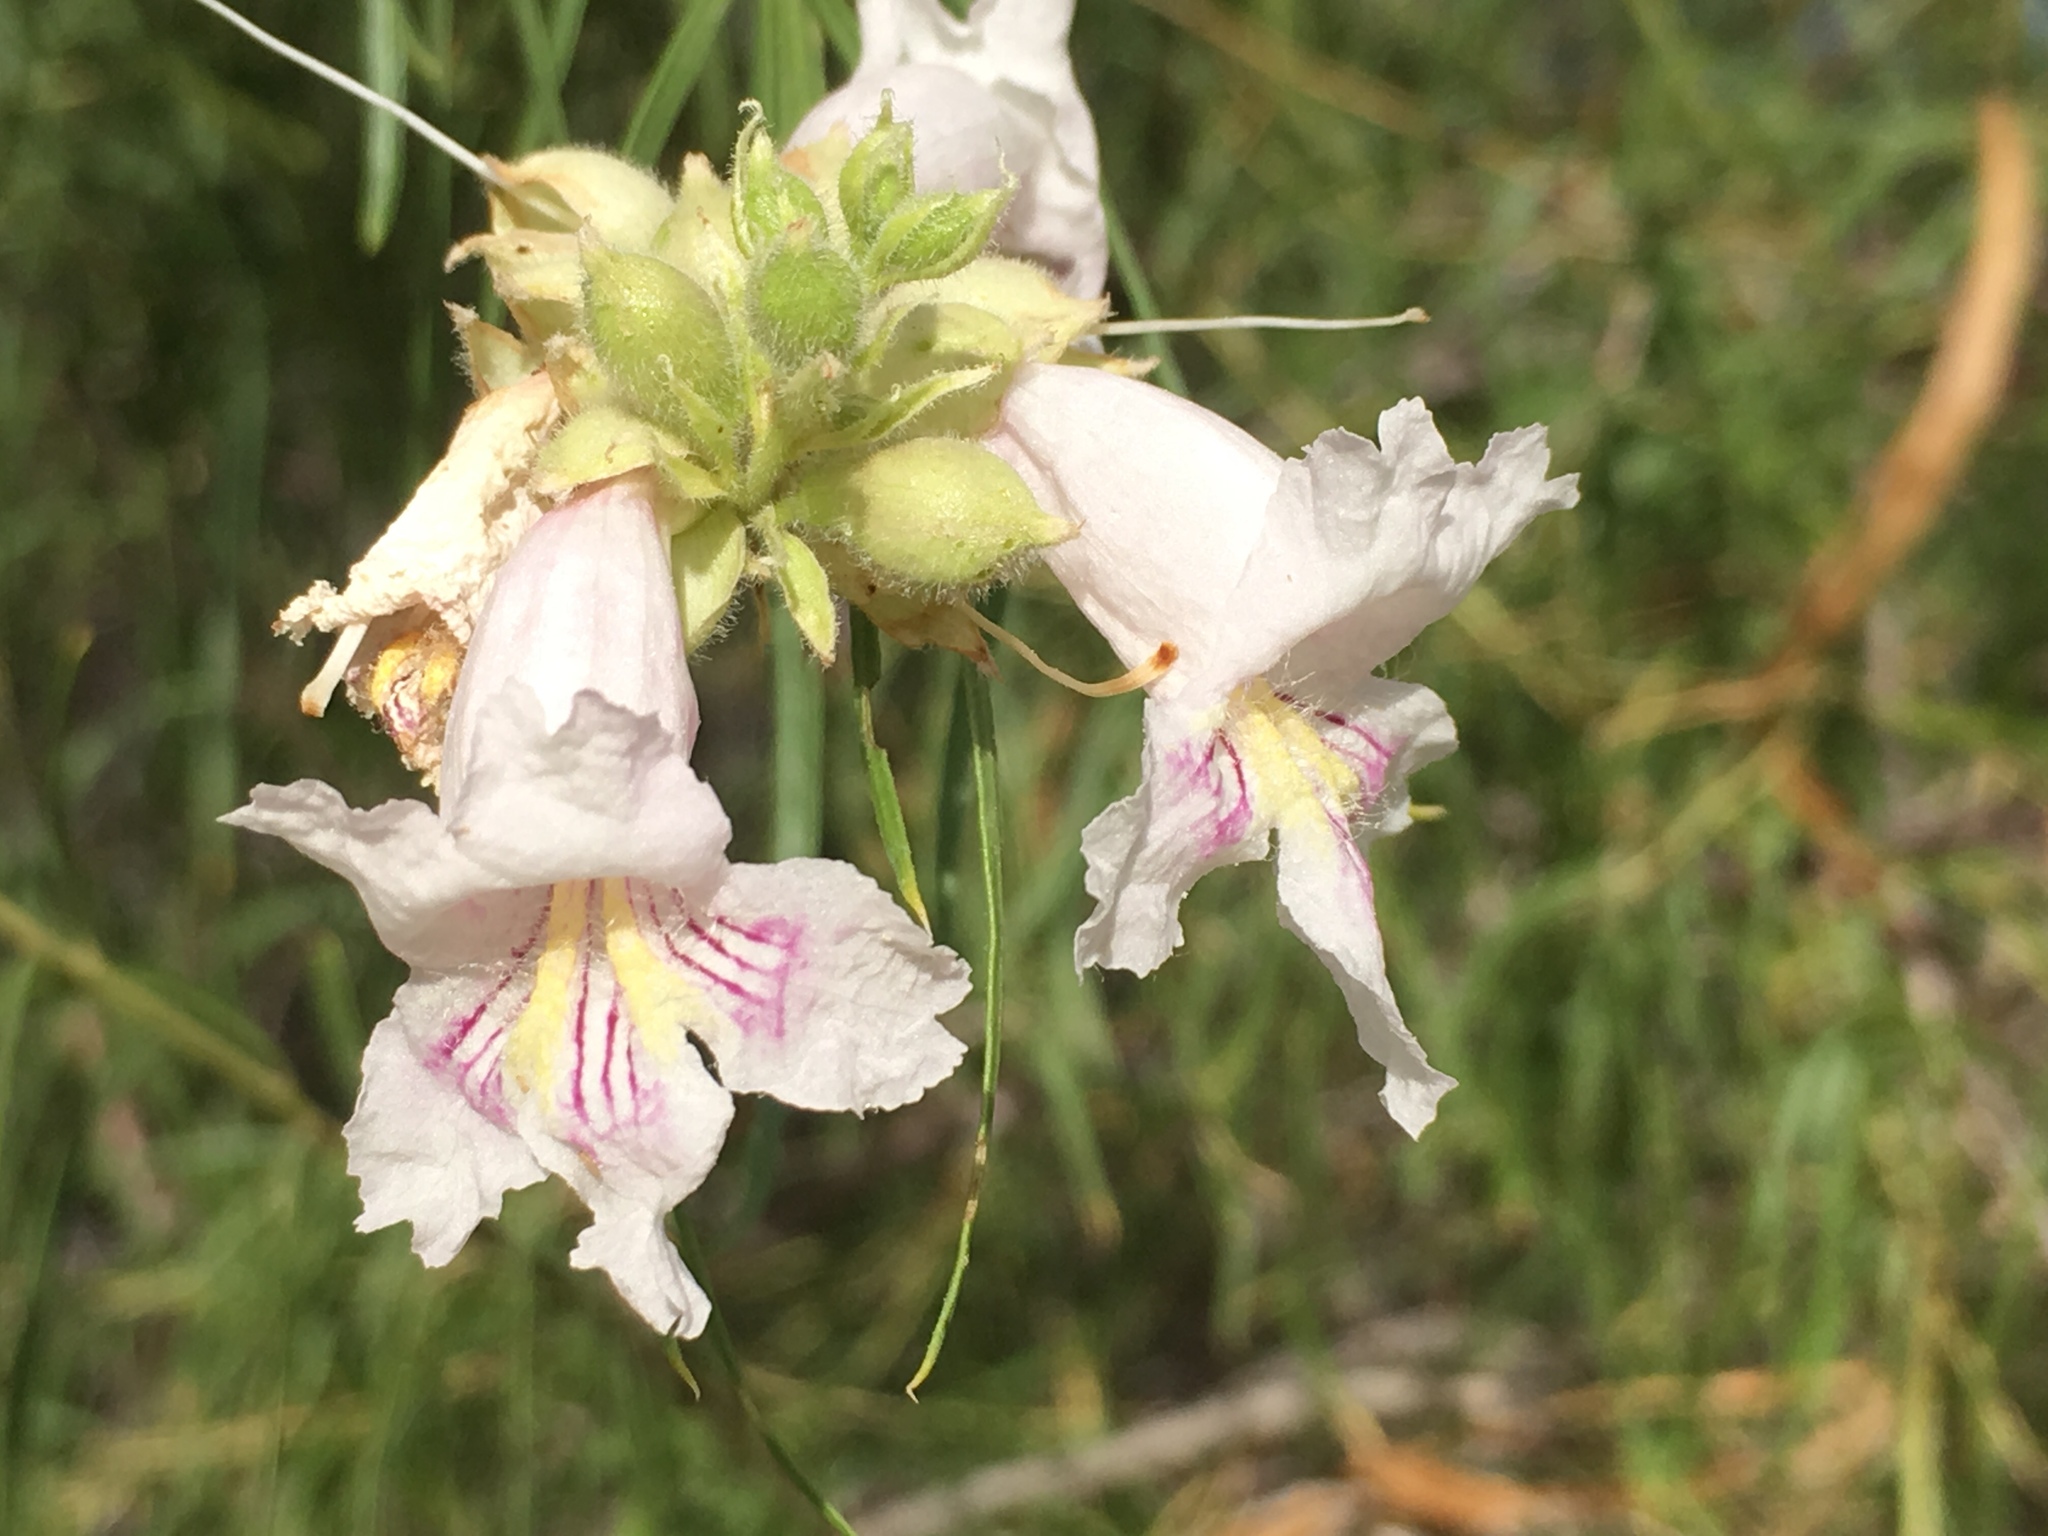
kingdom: Plantae
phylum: Tracheophyta
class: Magnoliopsida
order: Lamiales
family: Bignoniaceae
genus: Chilopsis
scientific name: Chilopsis linearis
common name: Desert-willow
